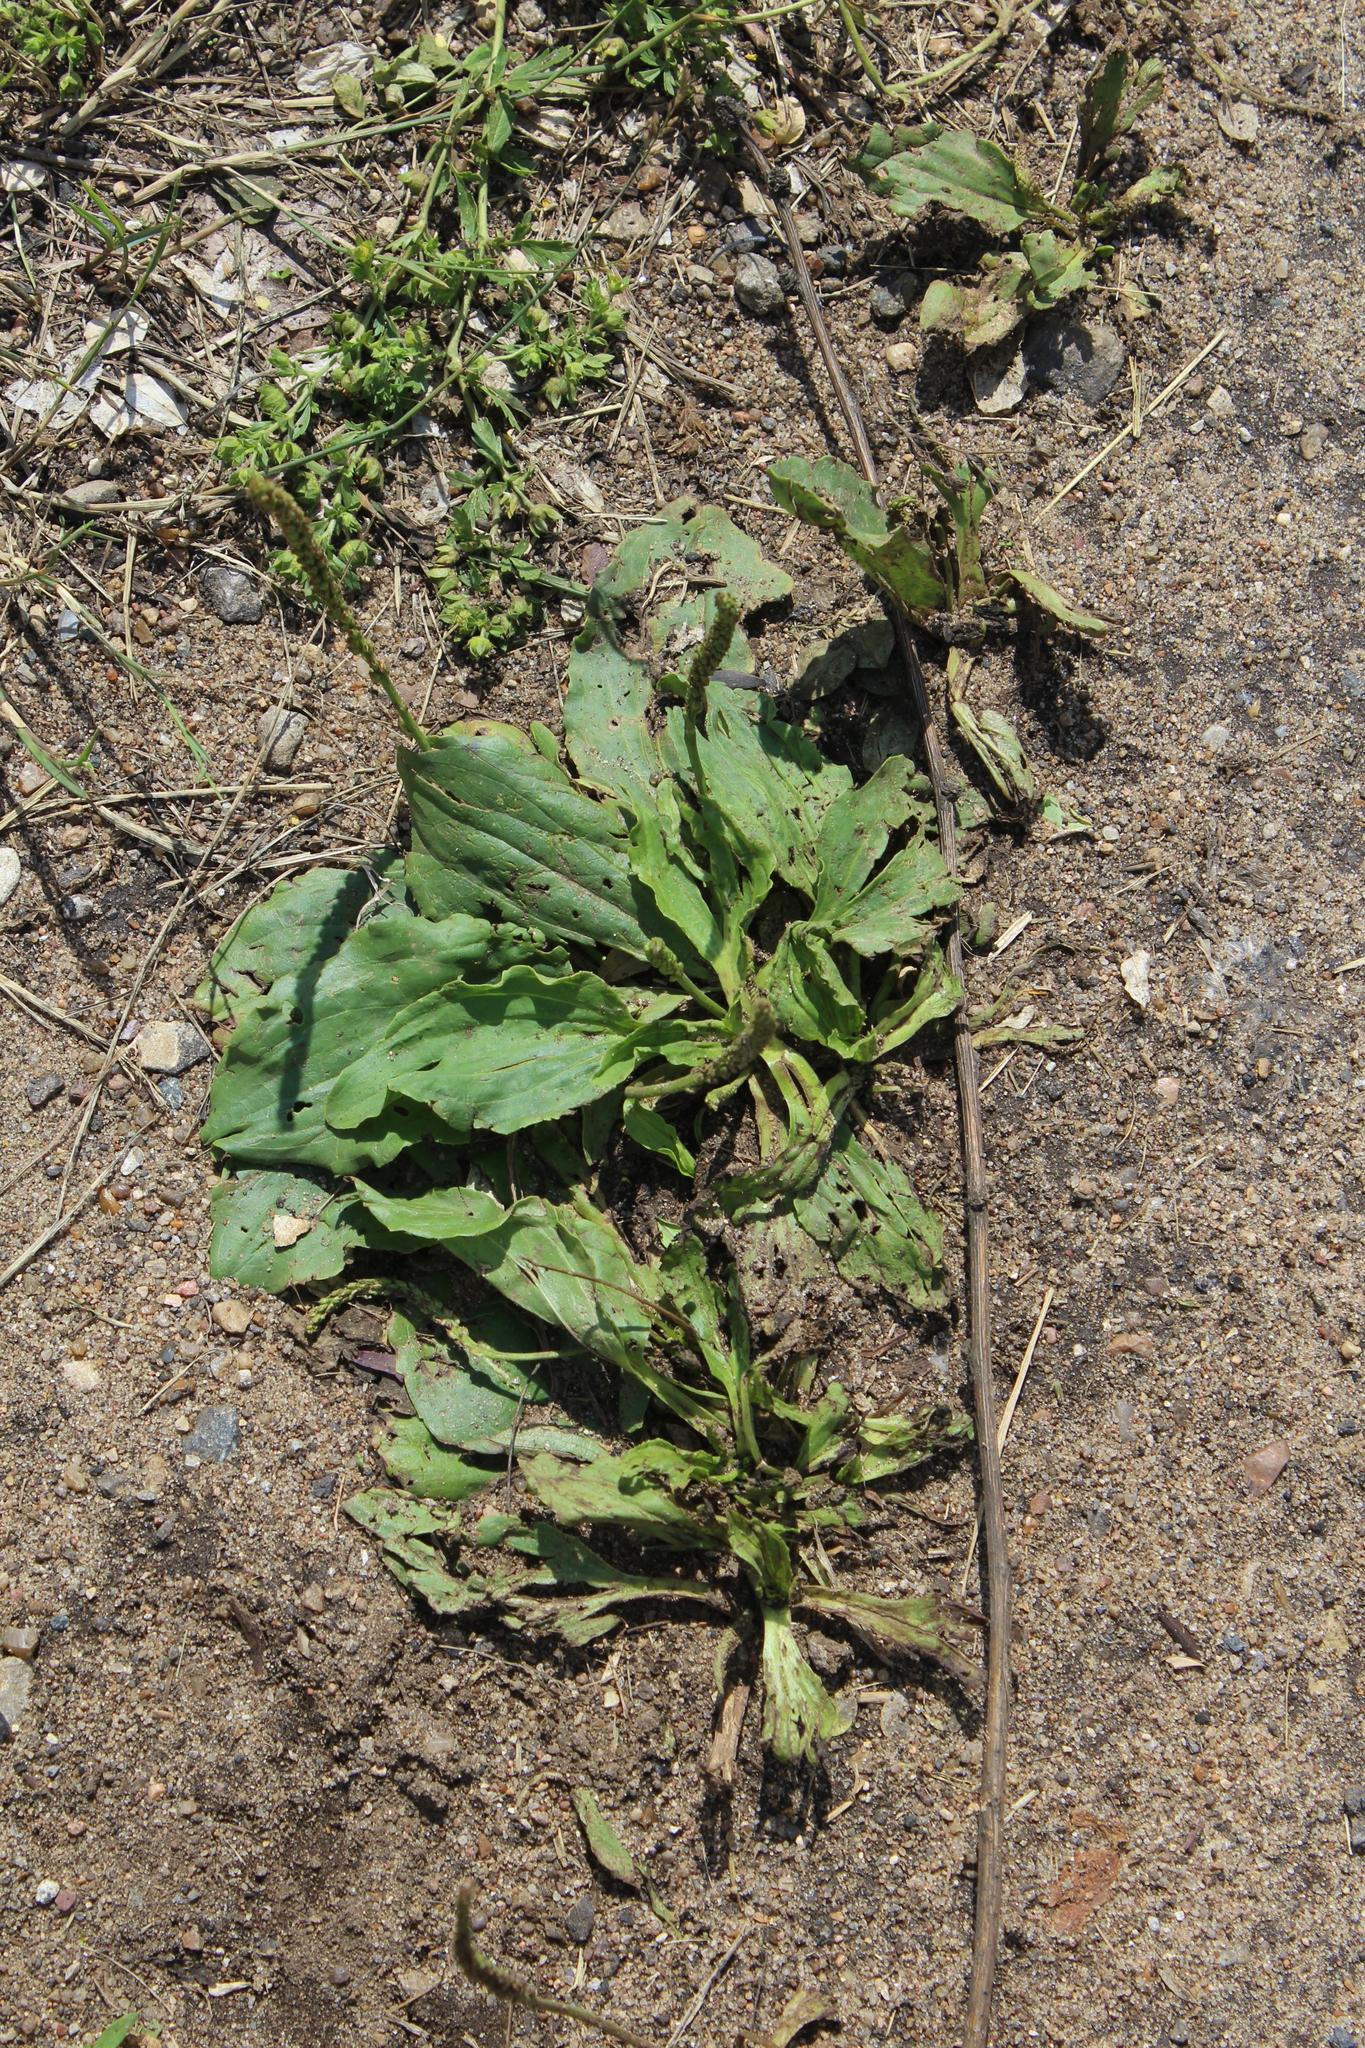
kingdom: Plantae
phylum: Tracheophyta
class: Magnoliopsida
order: Lamiales
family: Plantaginaceae
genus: Plantago
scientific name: Plantago major
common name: Common plantain
